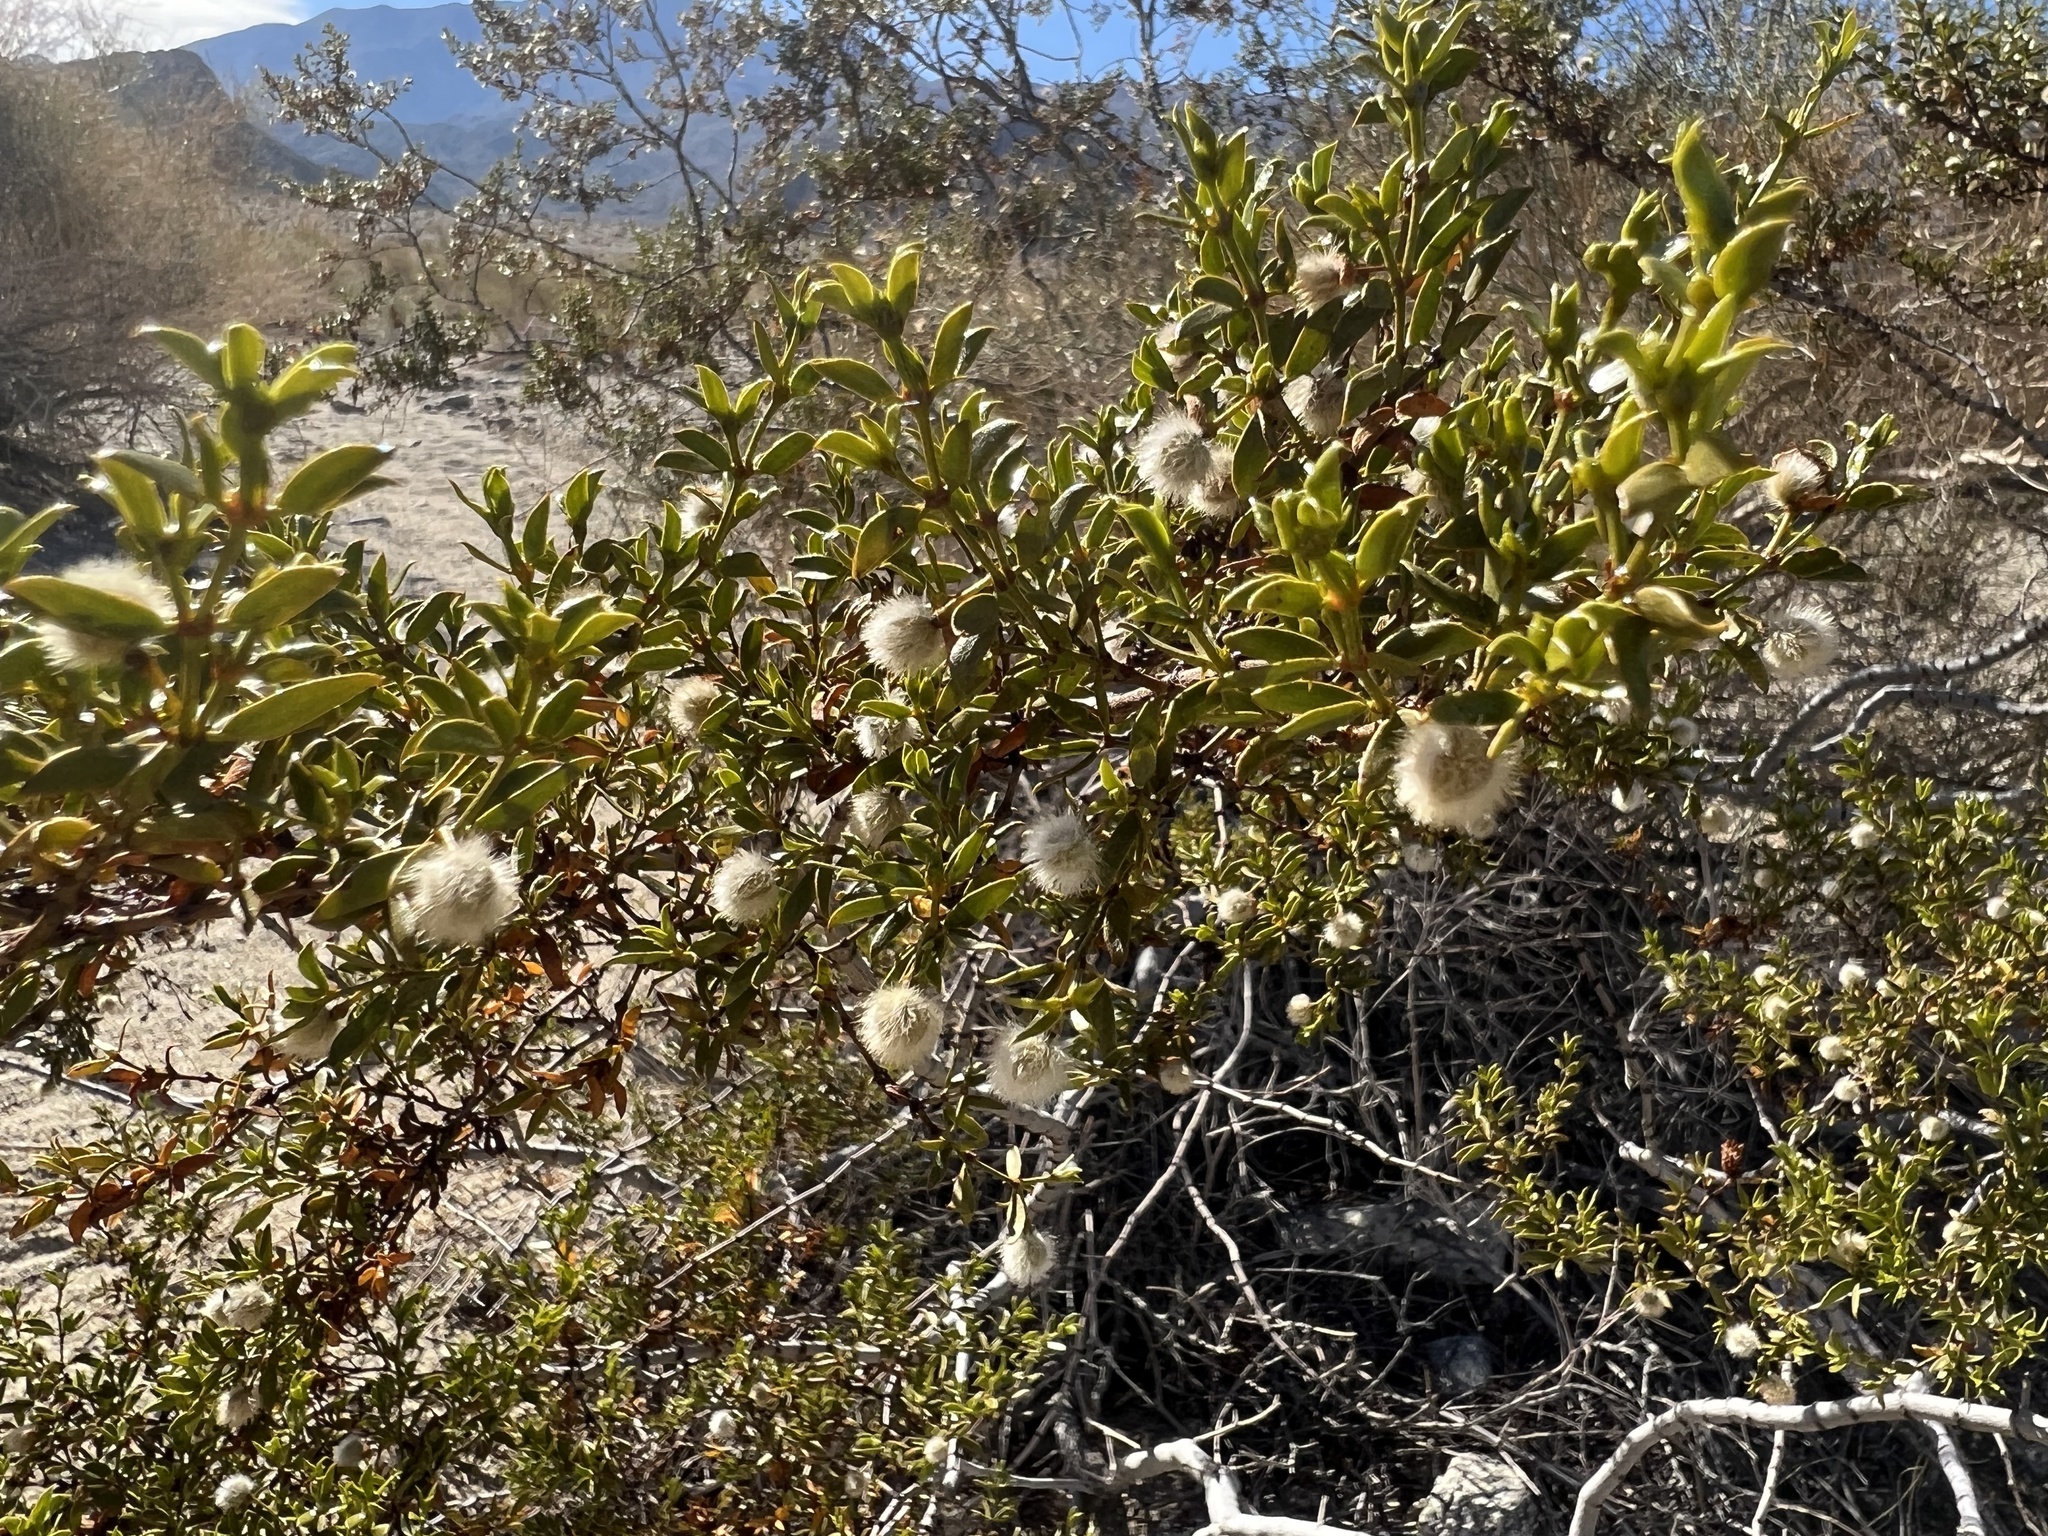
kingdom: Plantae
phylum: Tracheophyta
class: Magnoliopsida
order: Zygophyllales
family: Zygophyllaceae
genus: Larrea
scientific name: Larrea tridentata
